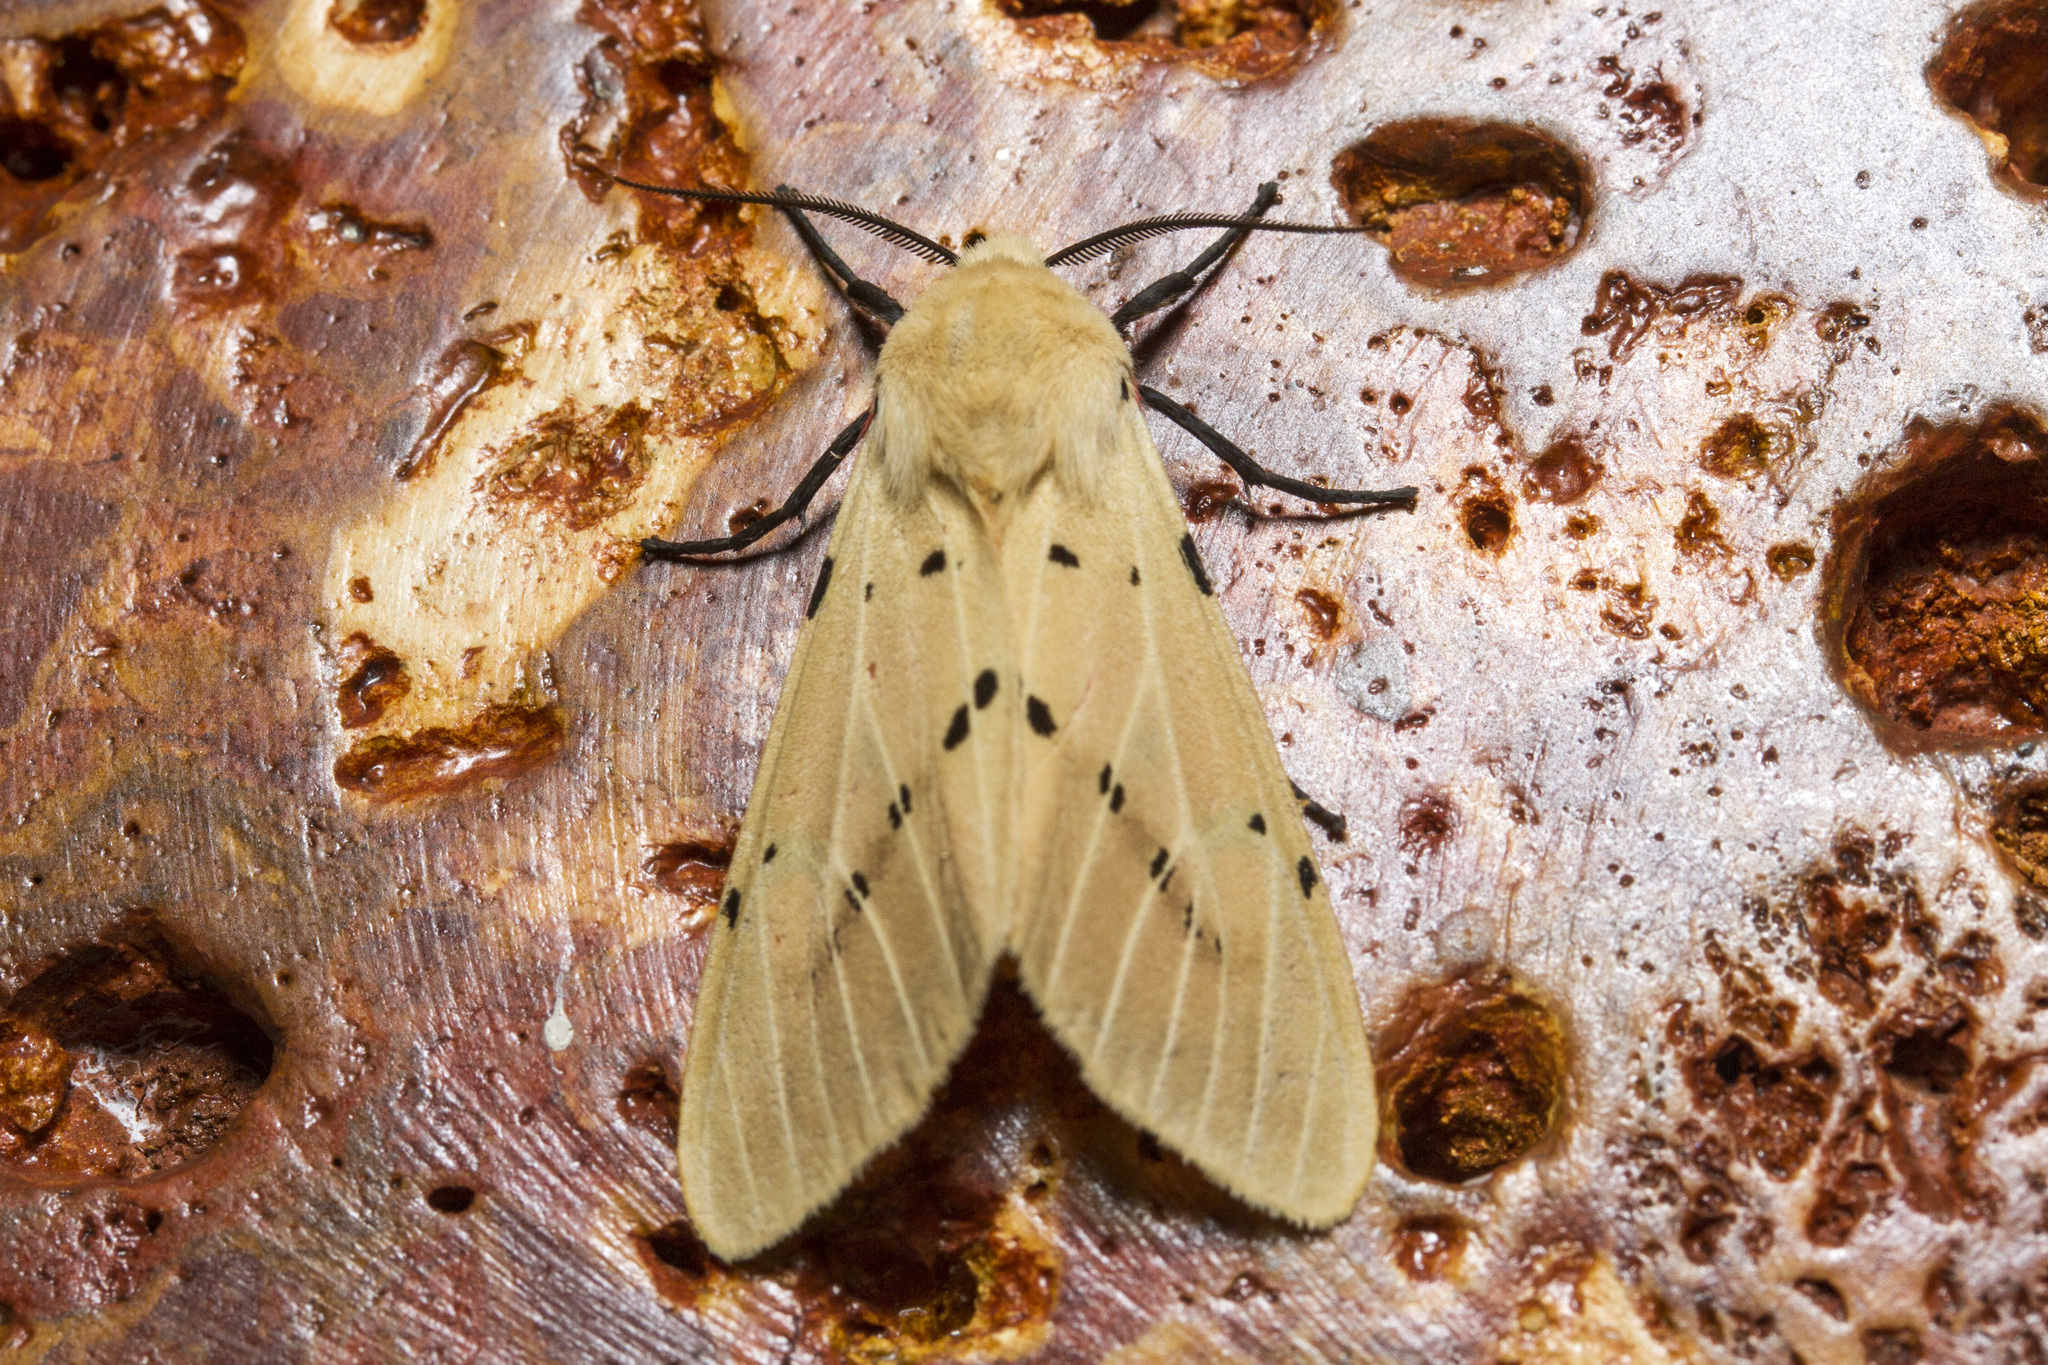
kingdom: Animalia
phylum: Arthropoda
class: Insecta
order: Lepidoptera
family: Erebidae
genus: Spilarctia
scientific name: Spilarctia lutea
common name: Buff ermine
